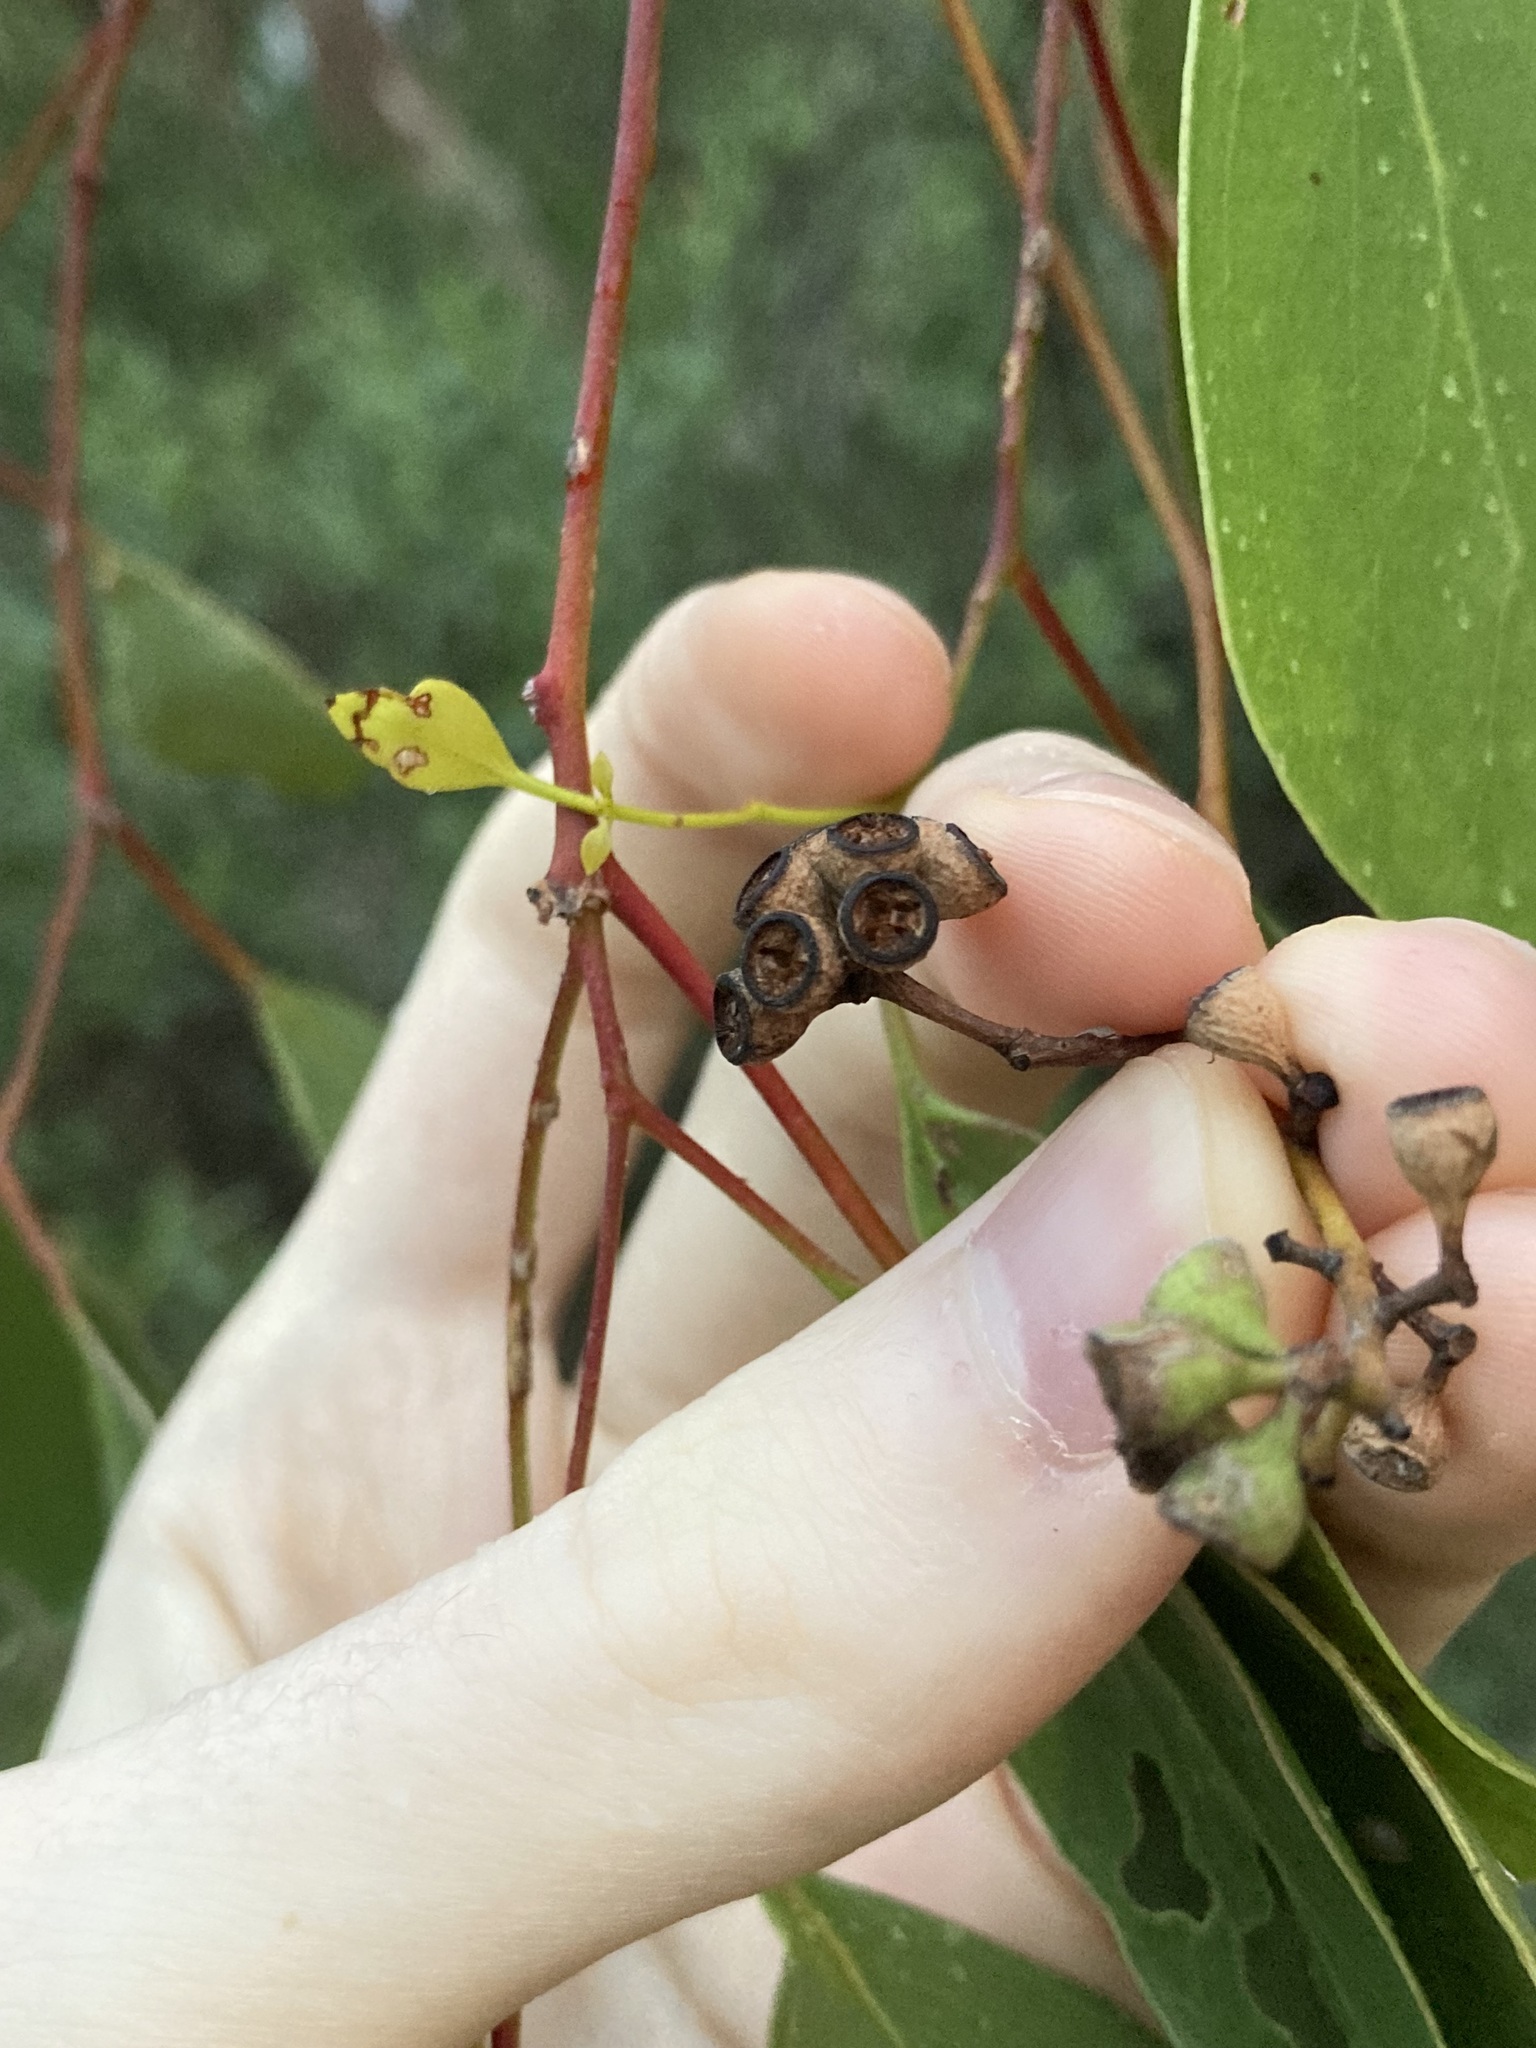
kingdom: Plantae
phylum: Tracheophyta
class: Magnoliopsida
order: Myrtales
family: Myrtaceae
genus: Eucalyptus
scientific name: Eucalyptus populnea
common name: Bimble box
